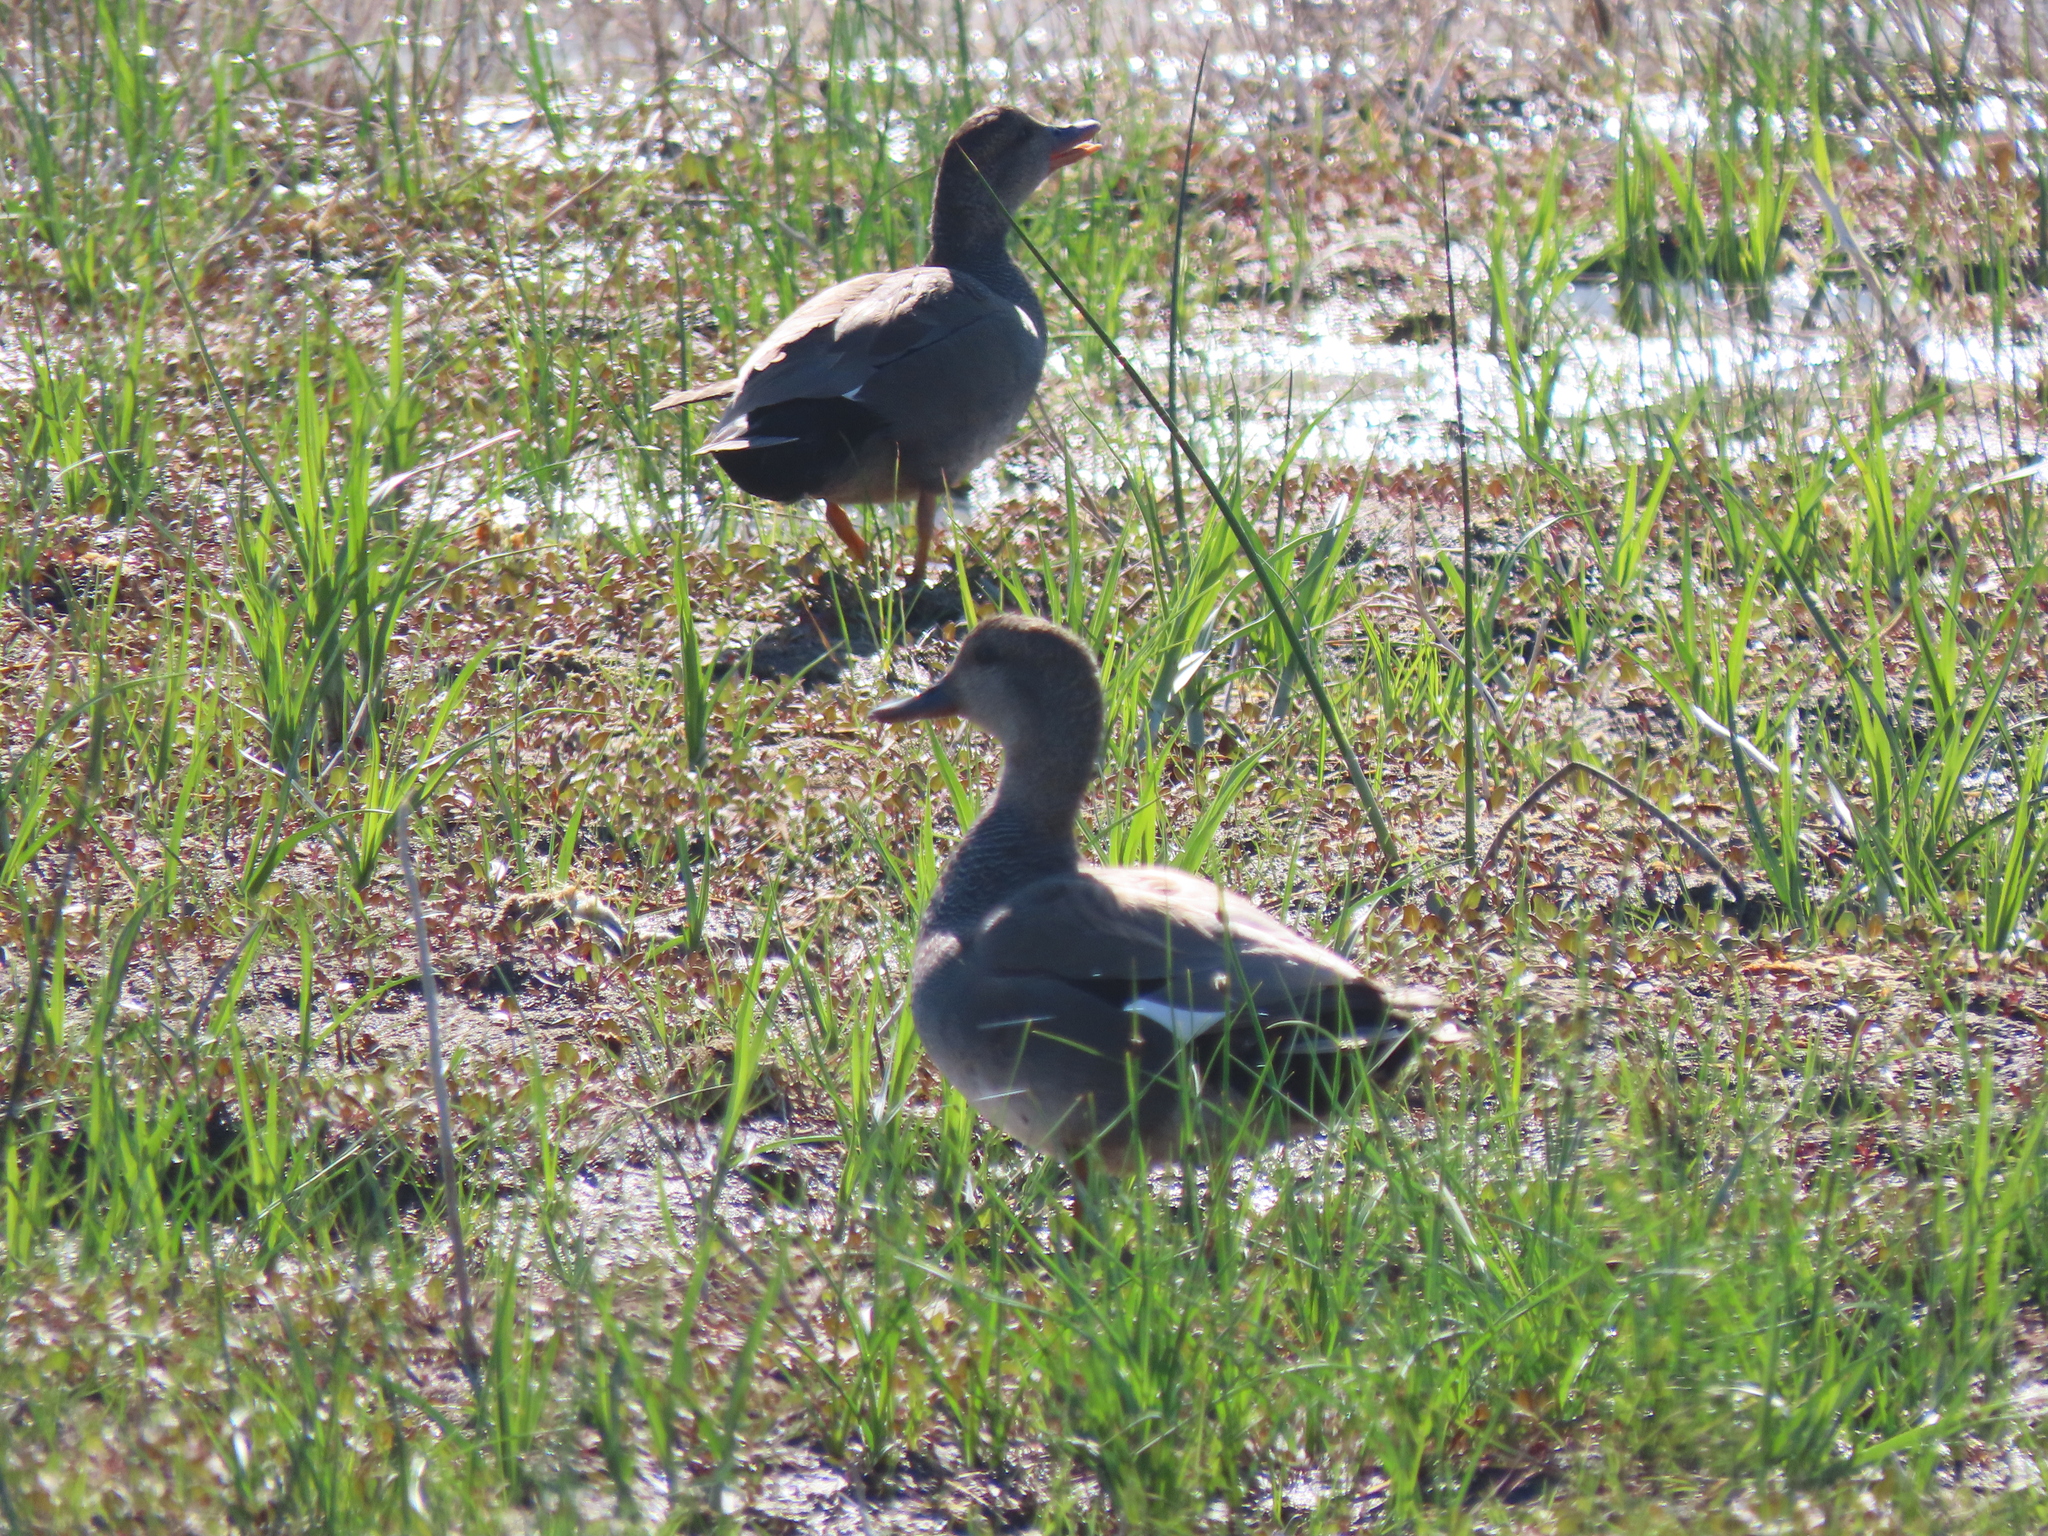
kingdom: Animalia
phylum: Chordata
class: Aves
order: Anseriformes
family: Anatidae
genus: Mareca
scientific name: Mareca strepera
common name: Gadwall
